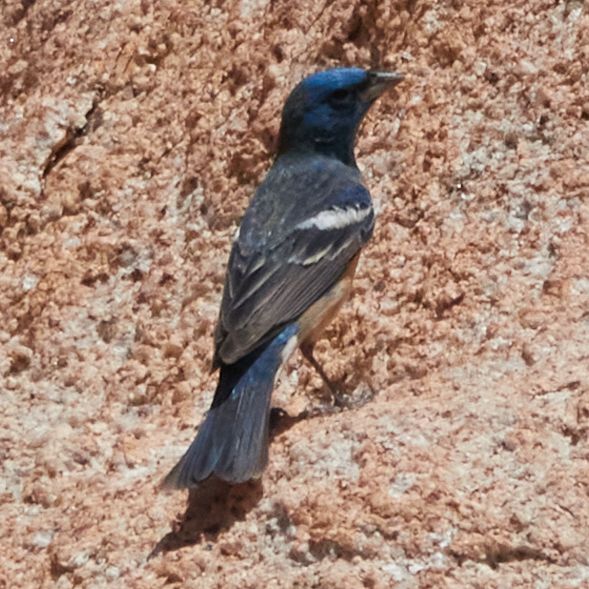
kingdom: Animalia
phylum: Chordata
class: Aves
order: Passeriformes
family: Cardinalidae
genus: Passerina
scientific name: Passerina amoena
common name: Lazuli bunting
